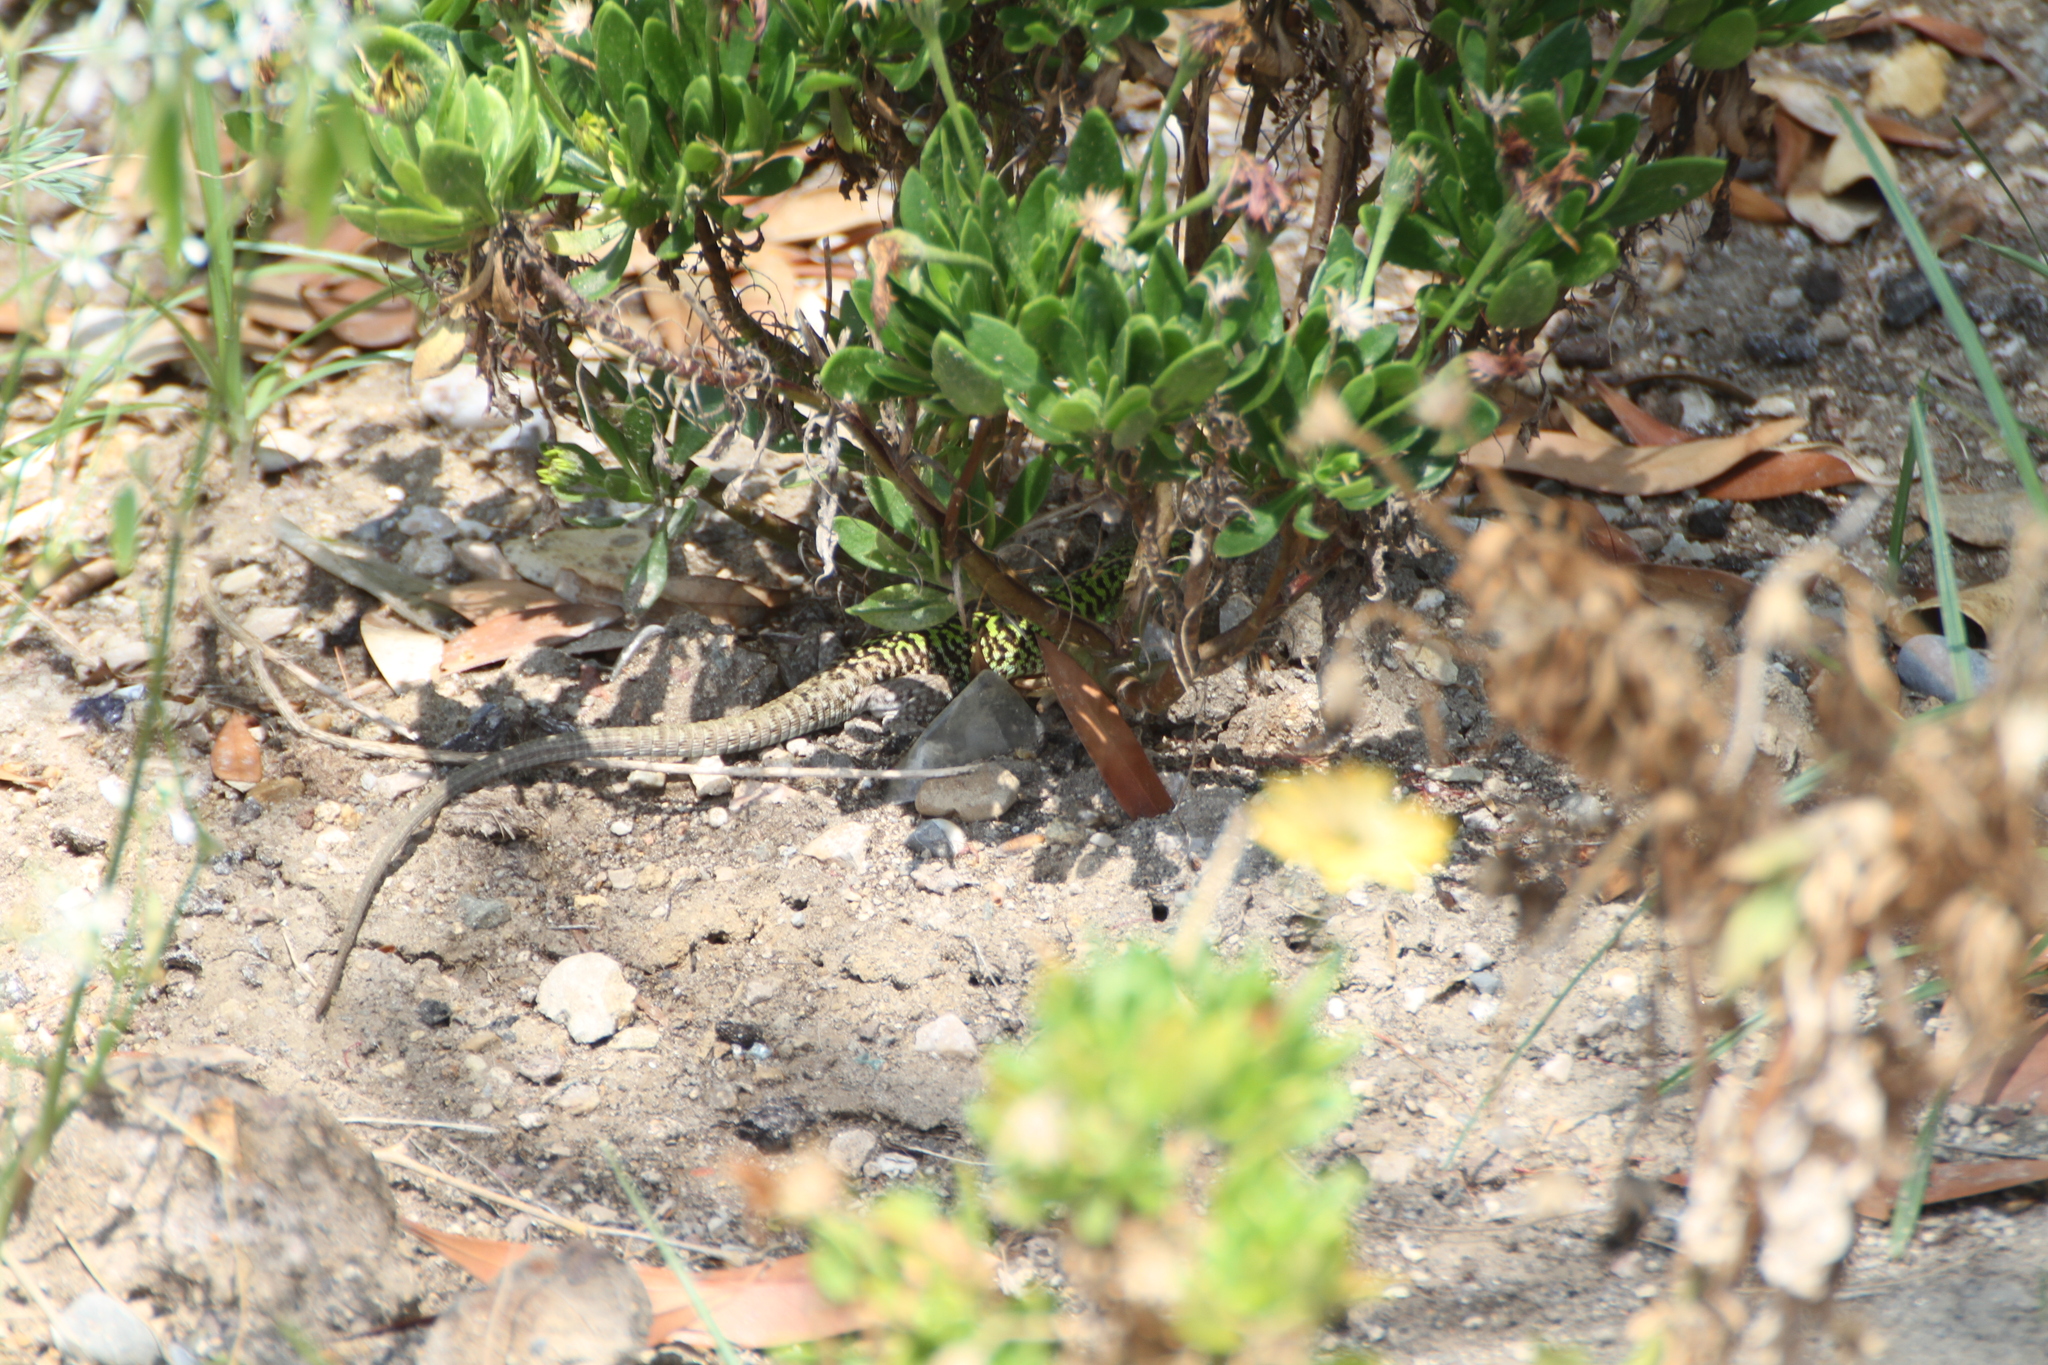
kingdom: Animalia
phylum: Chordata
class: Squamata
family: Lacertidae
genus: Podarcis
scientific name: Podarcis siculus
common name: Italian wall lizard
